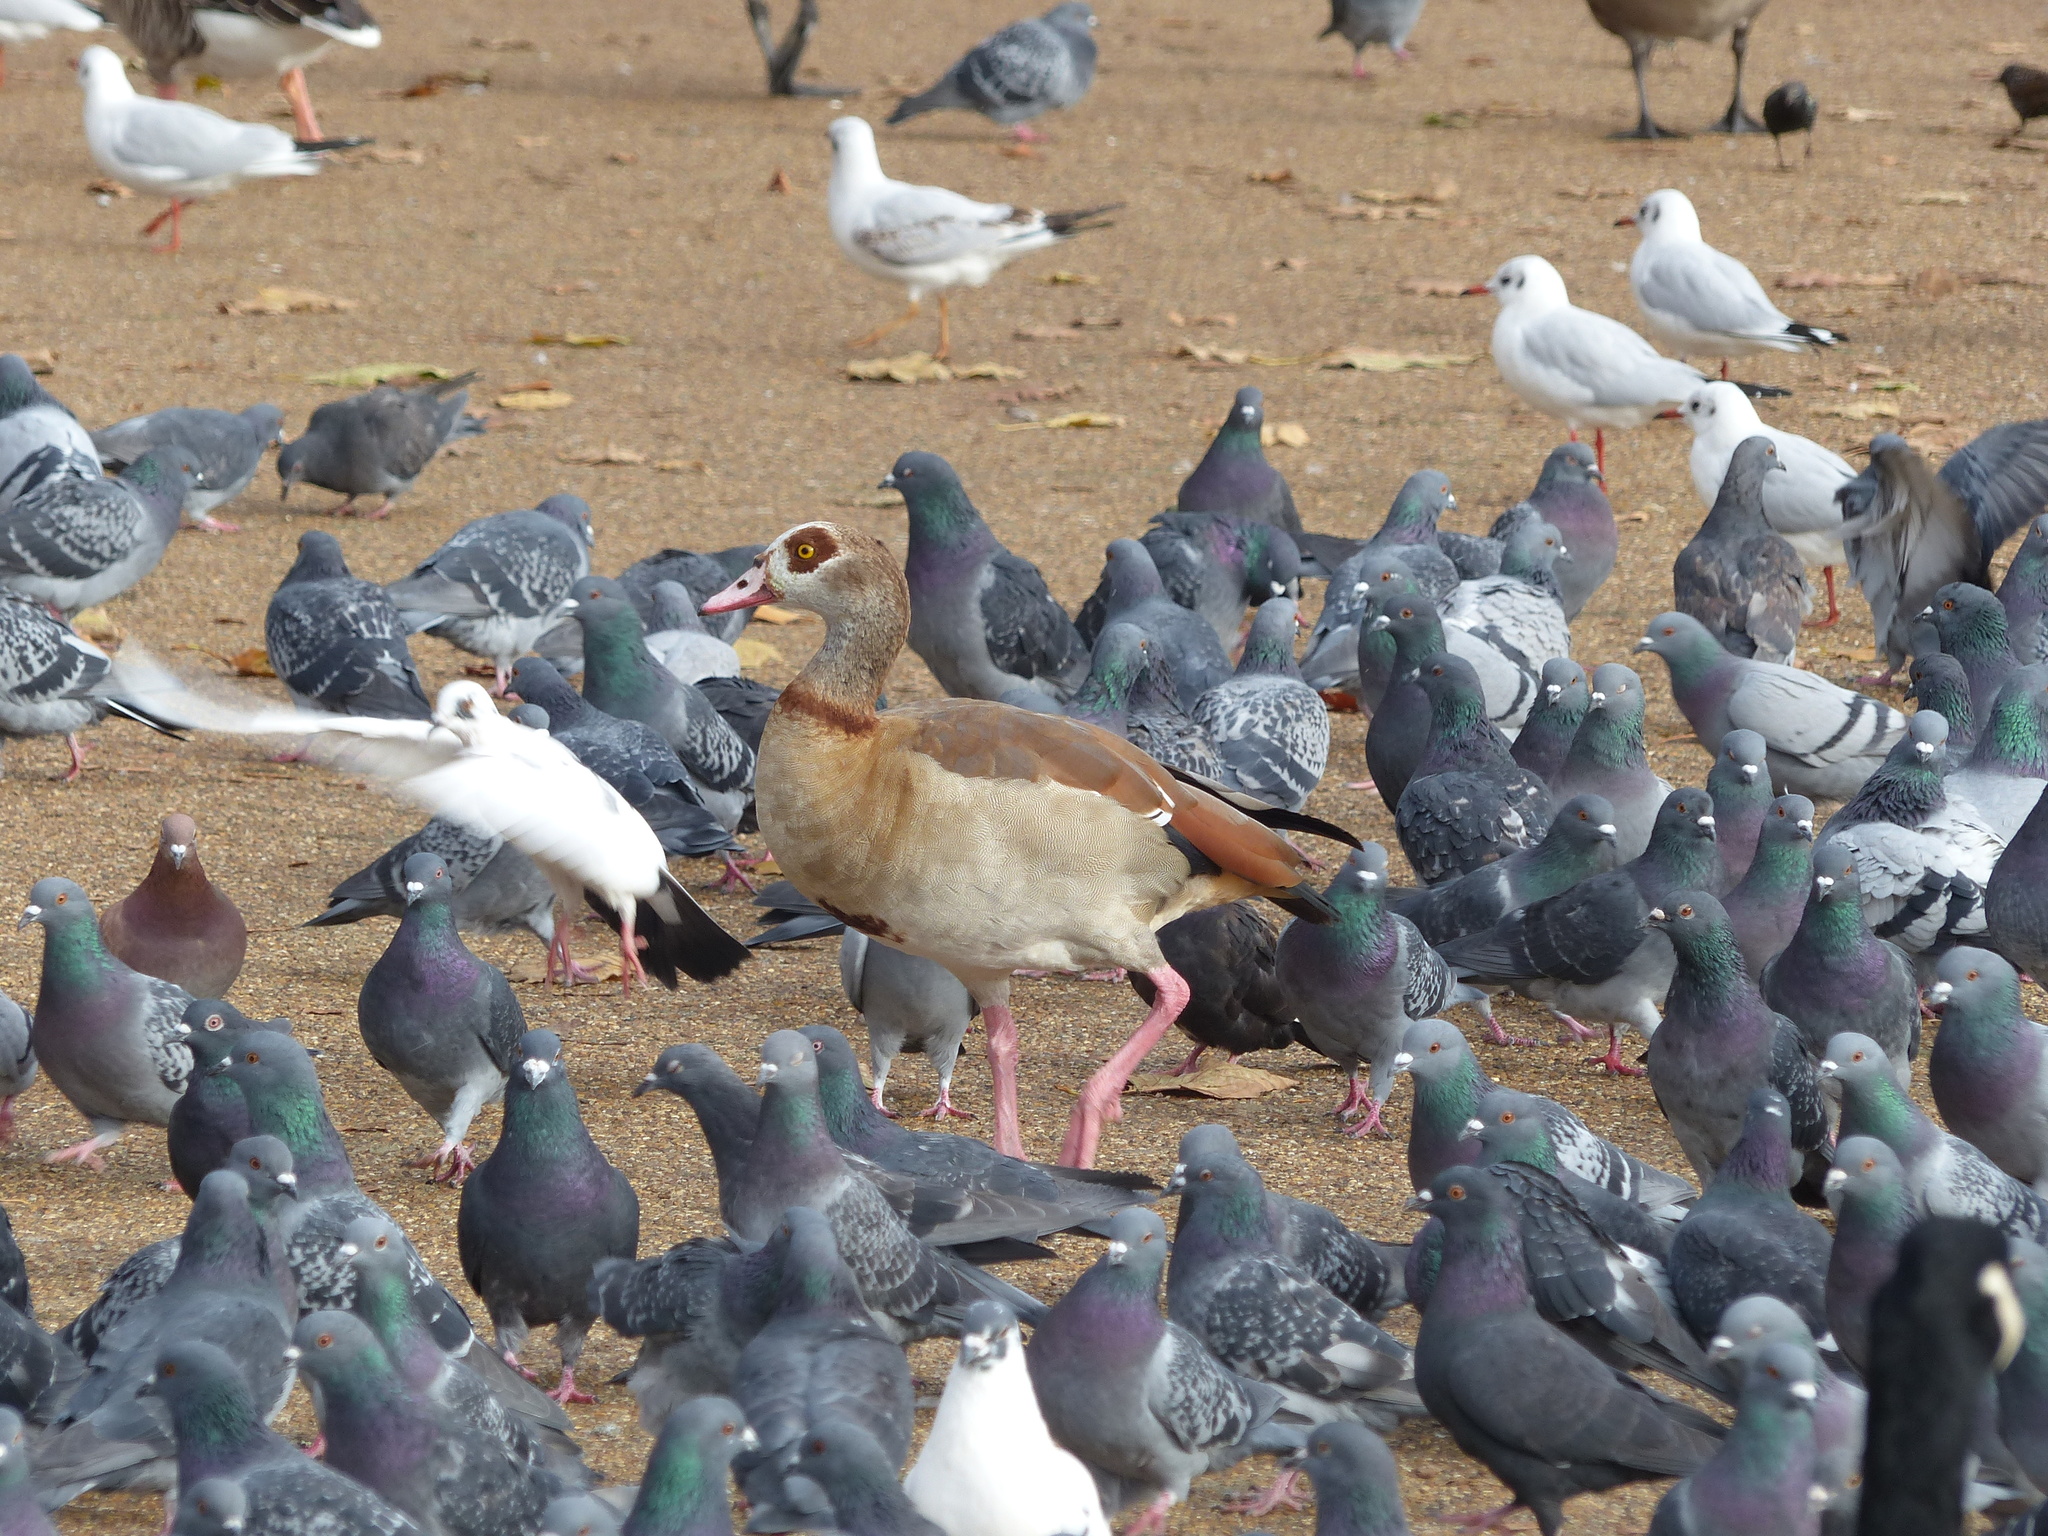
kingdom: Animalia
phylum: Chordata
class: Aves
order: Anseriformes
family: Anatidae
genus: Alopochen
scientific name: Alopochen aegyptiaca
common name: Egyptian goose
